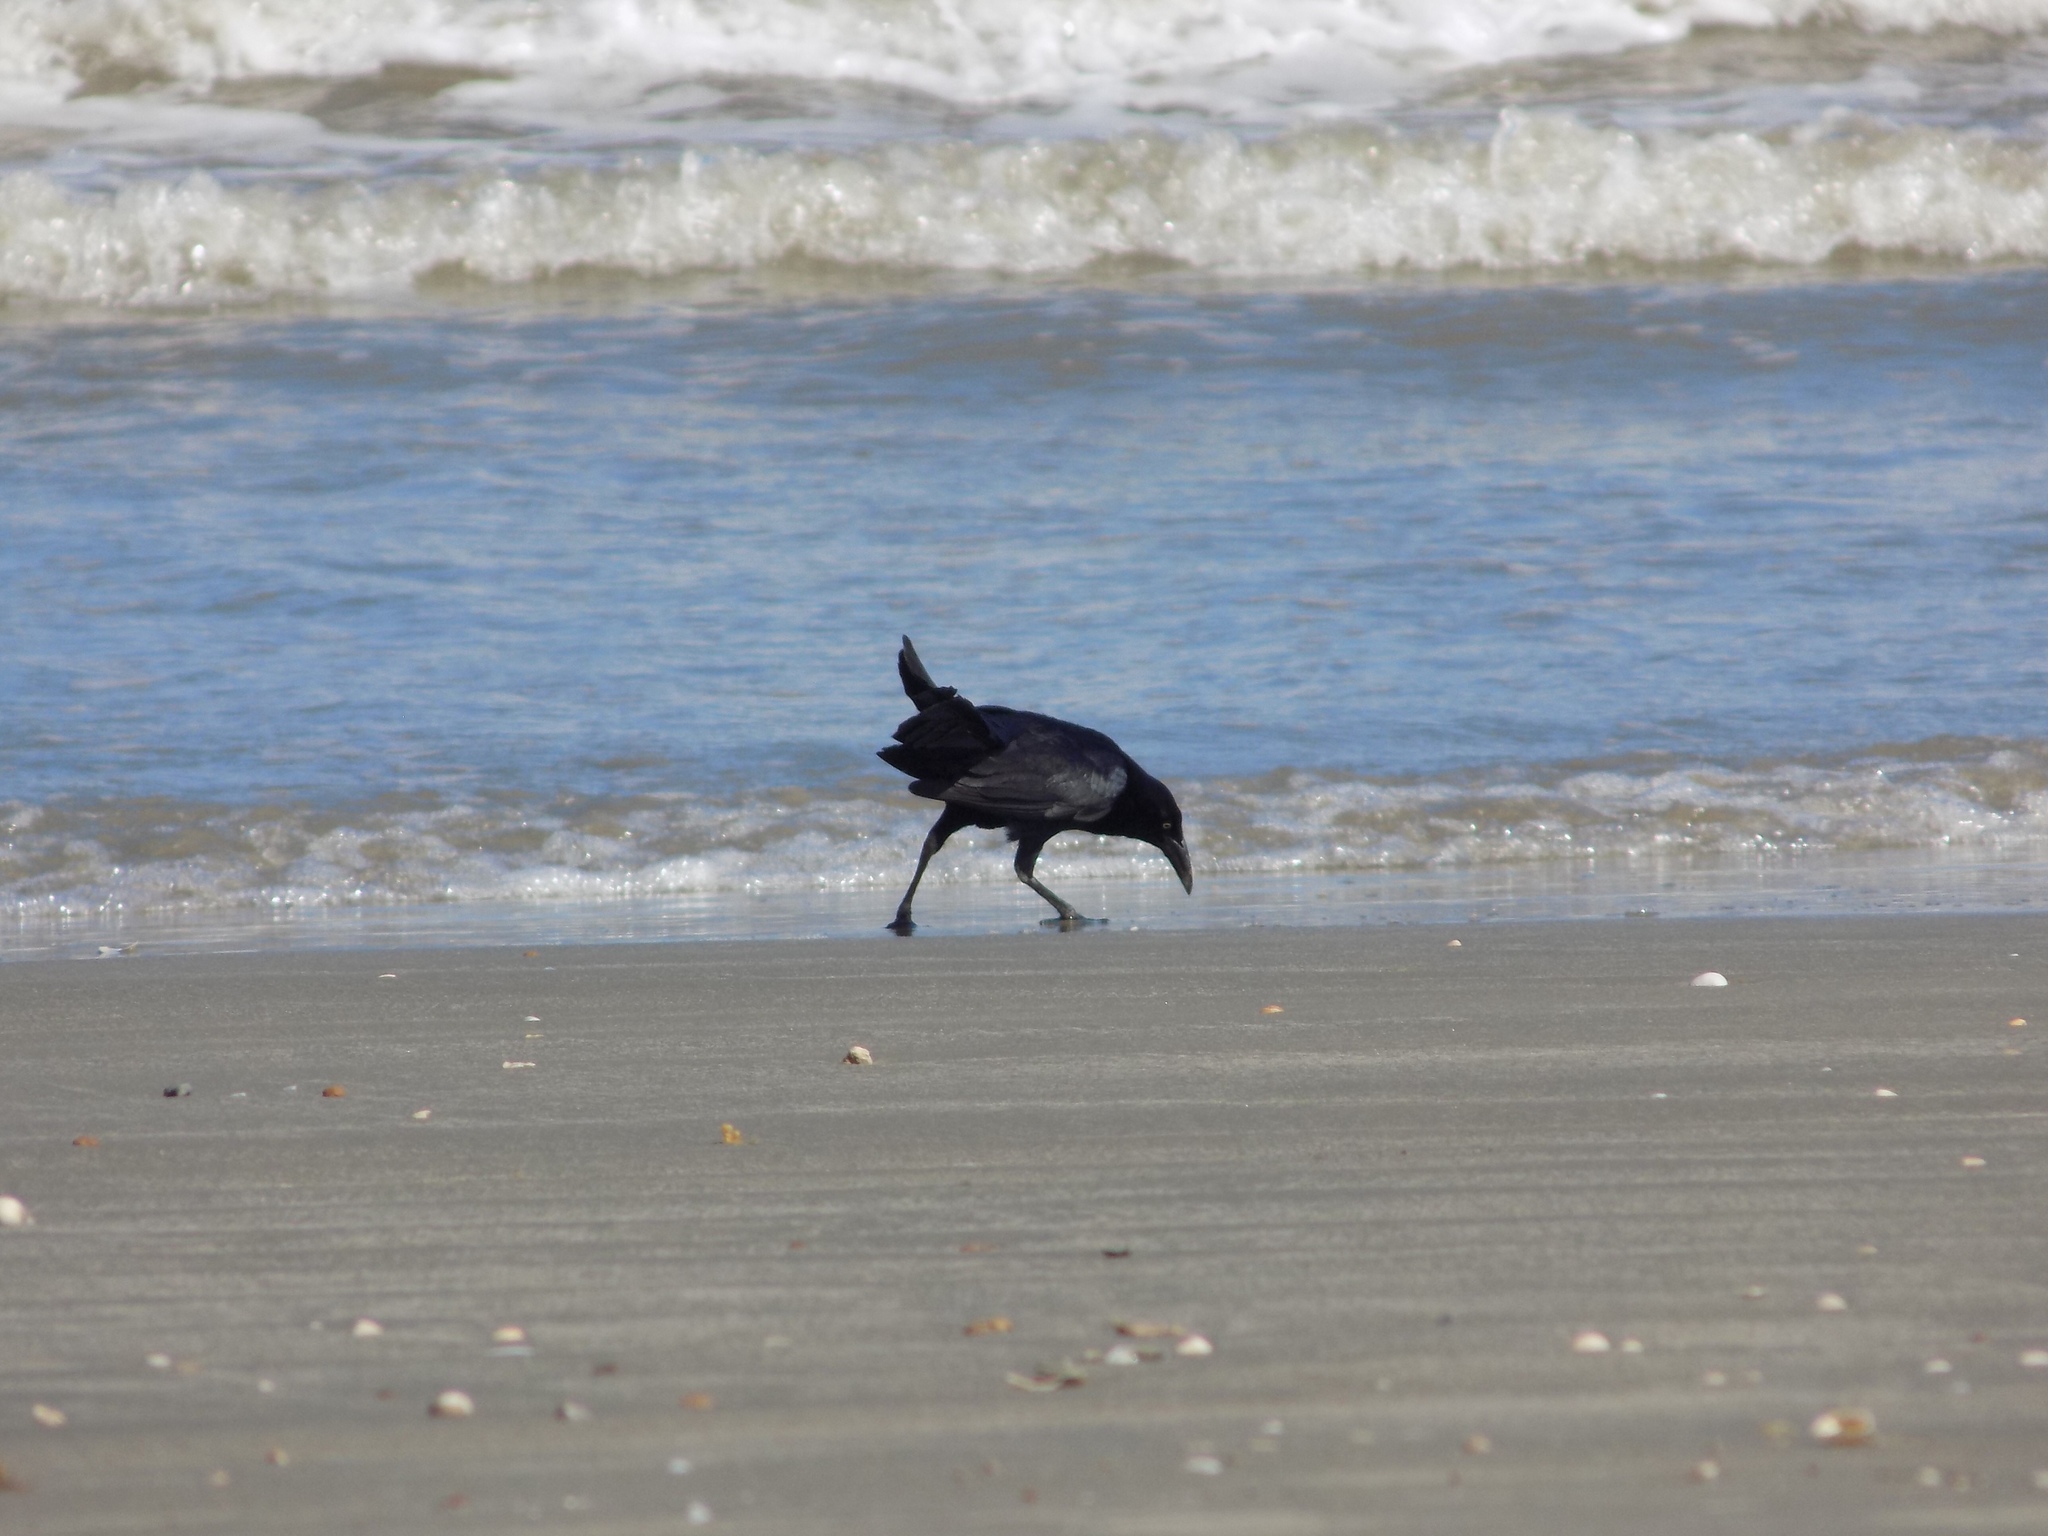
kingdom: Animalia
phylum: Chordata
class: Aves
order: Passeriformes
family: Icteridae
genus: Quiscalus
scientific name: Quiscalus mexicanus
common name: Great-tailed grackle
